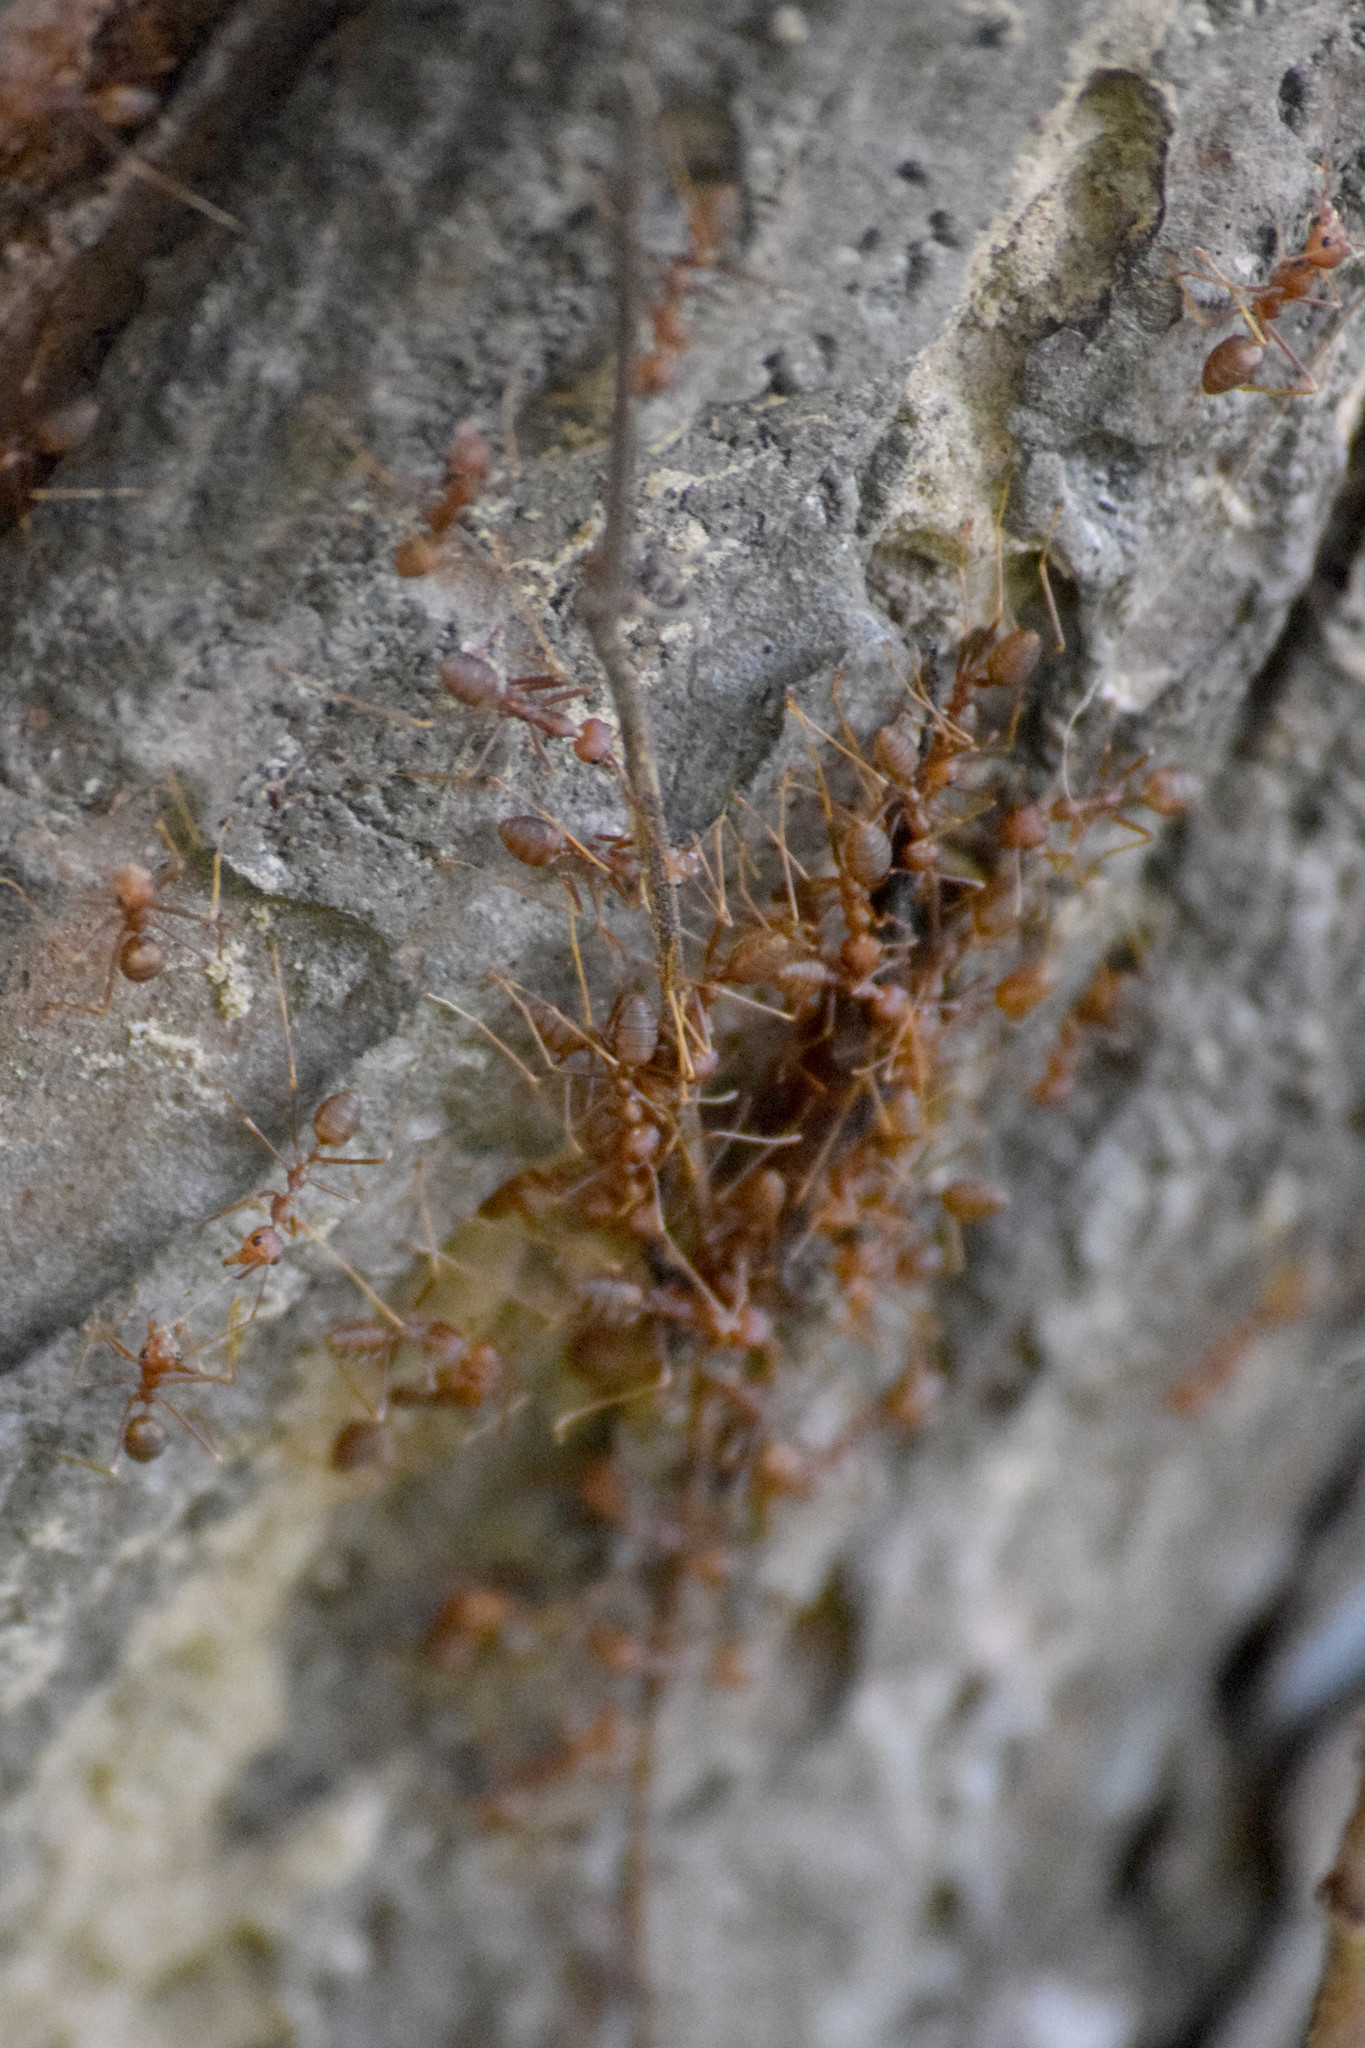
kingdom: Animalia
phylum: Arthropoda
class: Insecta
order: Hymenoptera
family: Formicidae
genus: Oecophylla
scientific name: Oecophylla smaragdina
